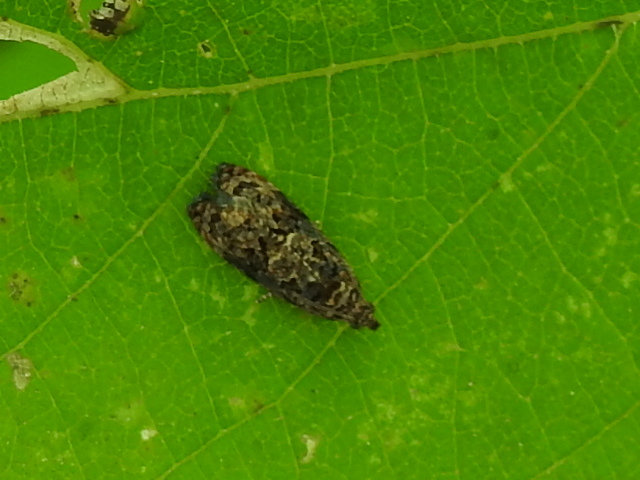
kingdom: Animalia
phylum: Arthropoda
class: Insecta
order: Lepidoptera
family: Tortricidae
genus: Endothenia
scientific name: Endothenia hebesana
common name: Verbena bud moth
